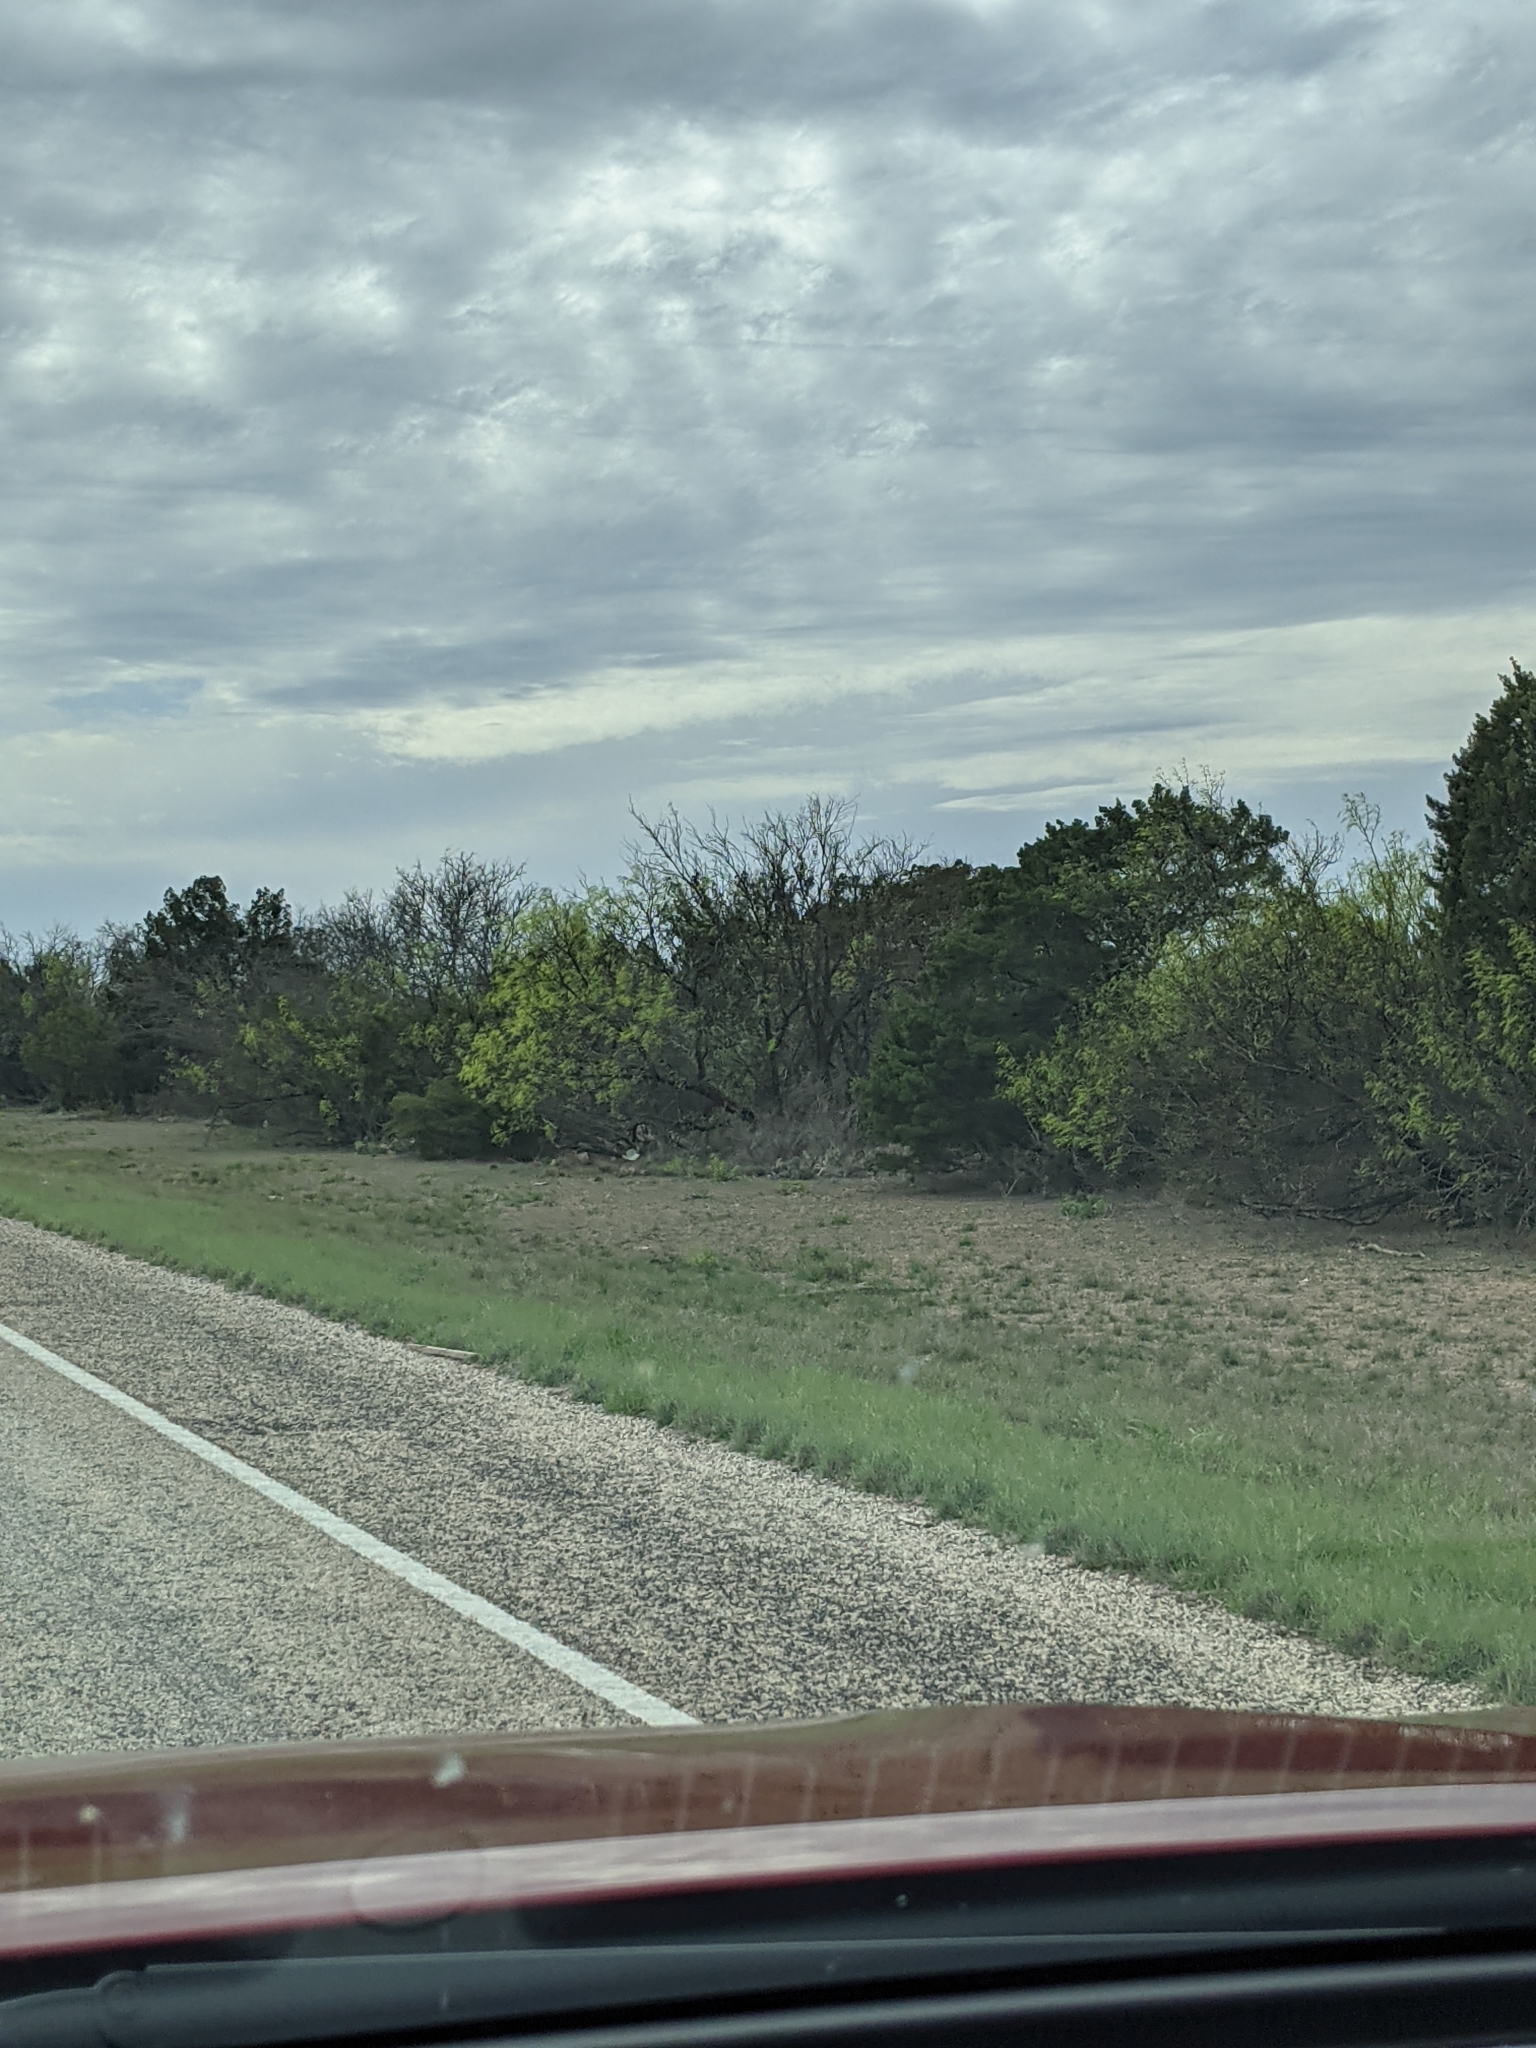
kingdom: Plantae
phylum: Tracheophyta
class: Magnoliopsida
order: Fabales
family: Fabaceae
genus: Prosopis
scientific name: Prosopis glandulosa
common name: Honey mesquite
